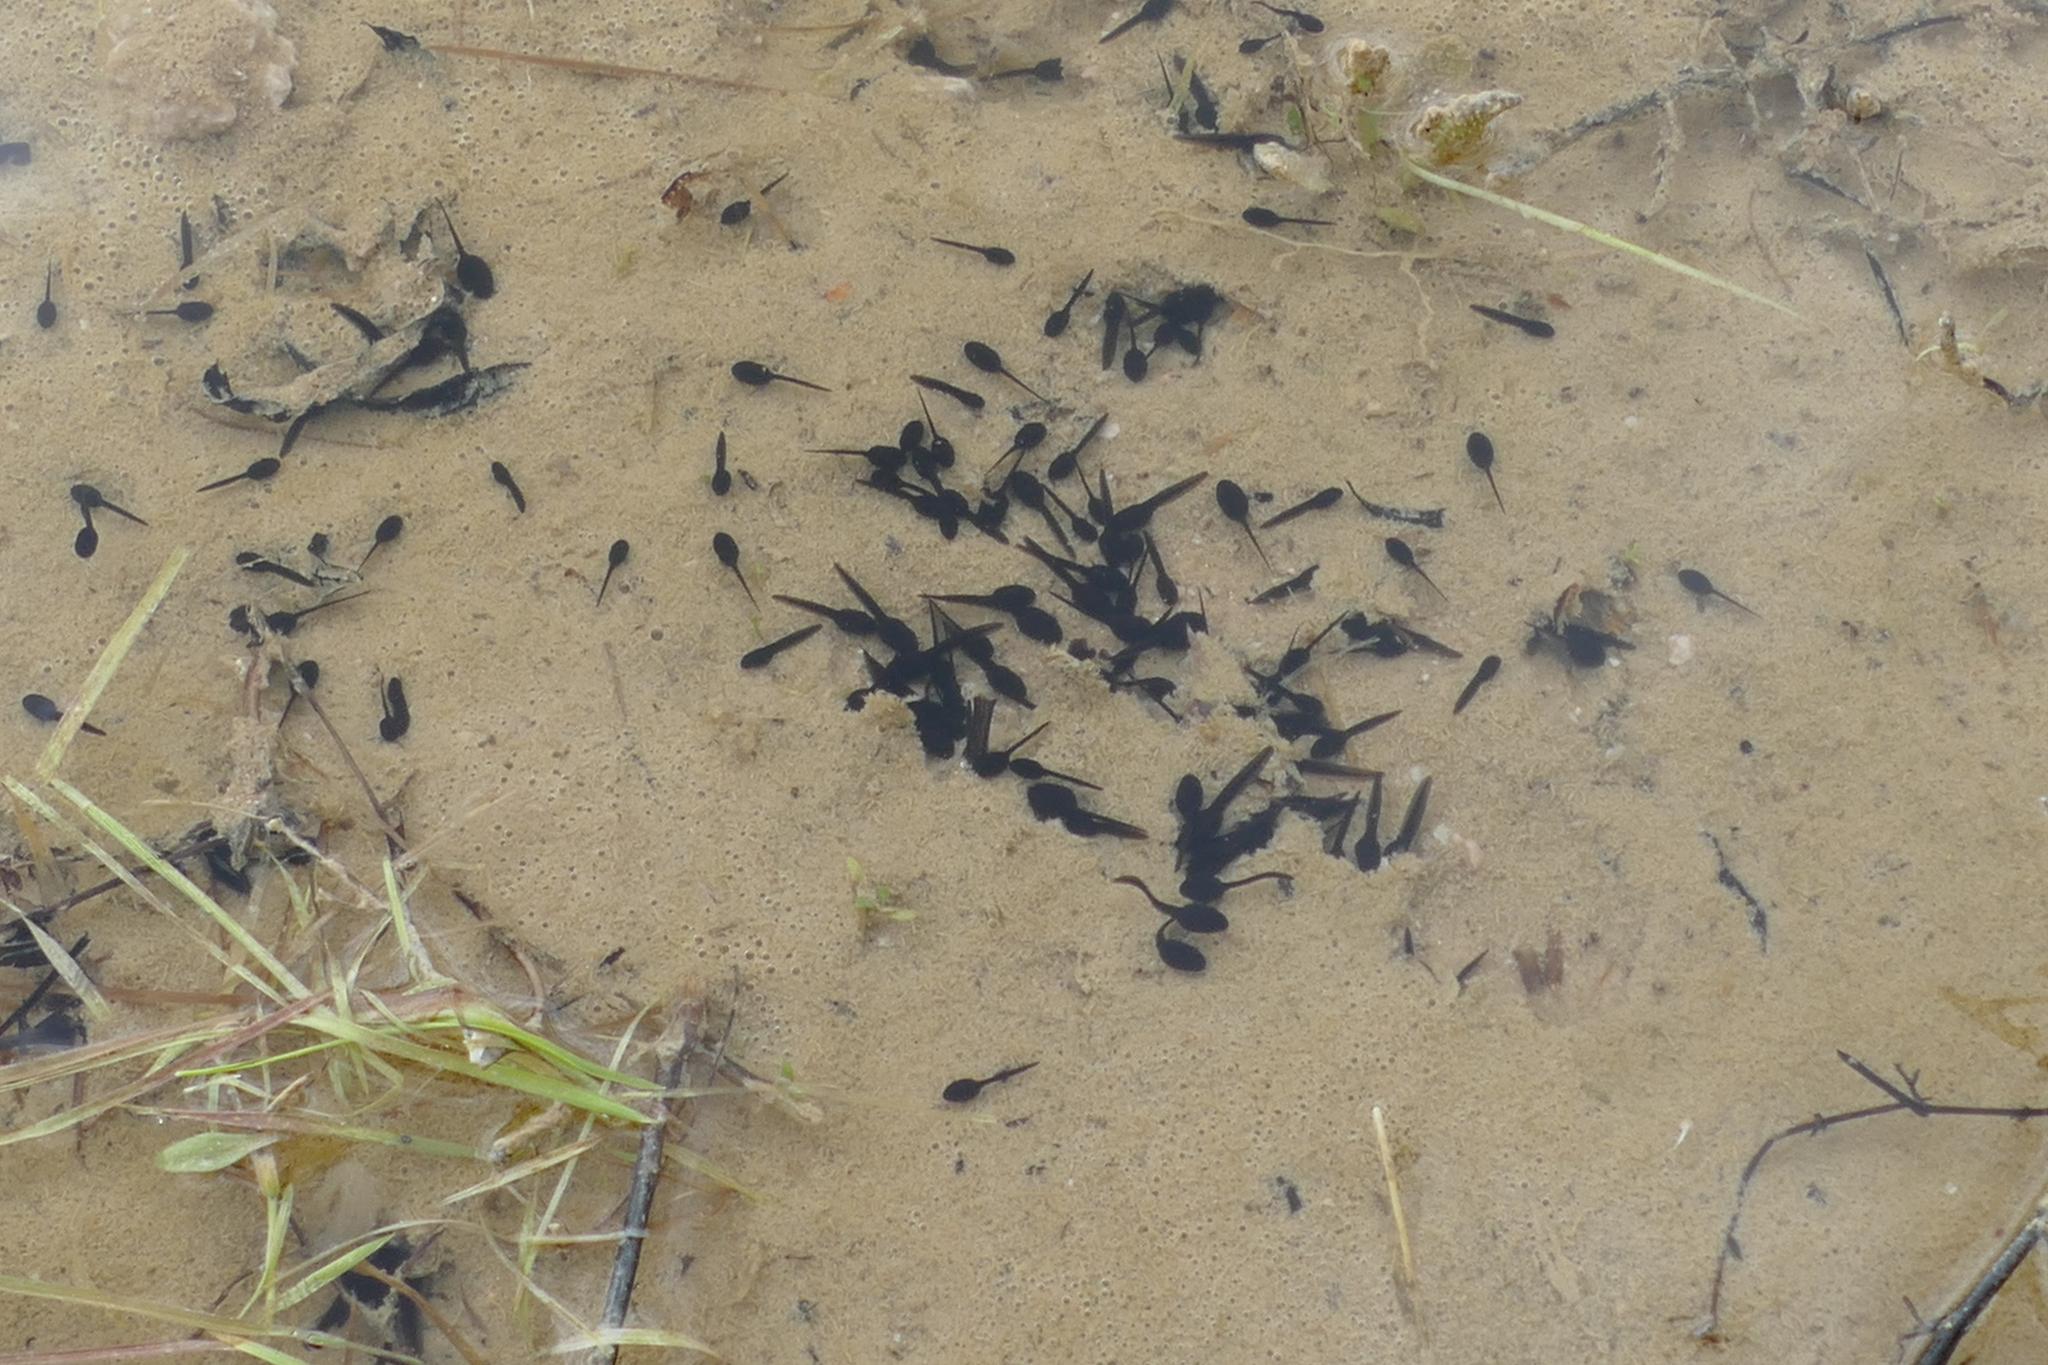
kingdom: Animalia
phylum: Chordata
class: Amphibia
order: Anura
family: Bufonidae
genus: Epidalea
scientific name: Epidalea calamita
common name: Natterjack toad
